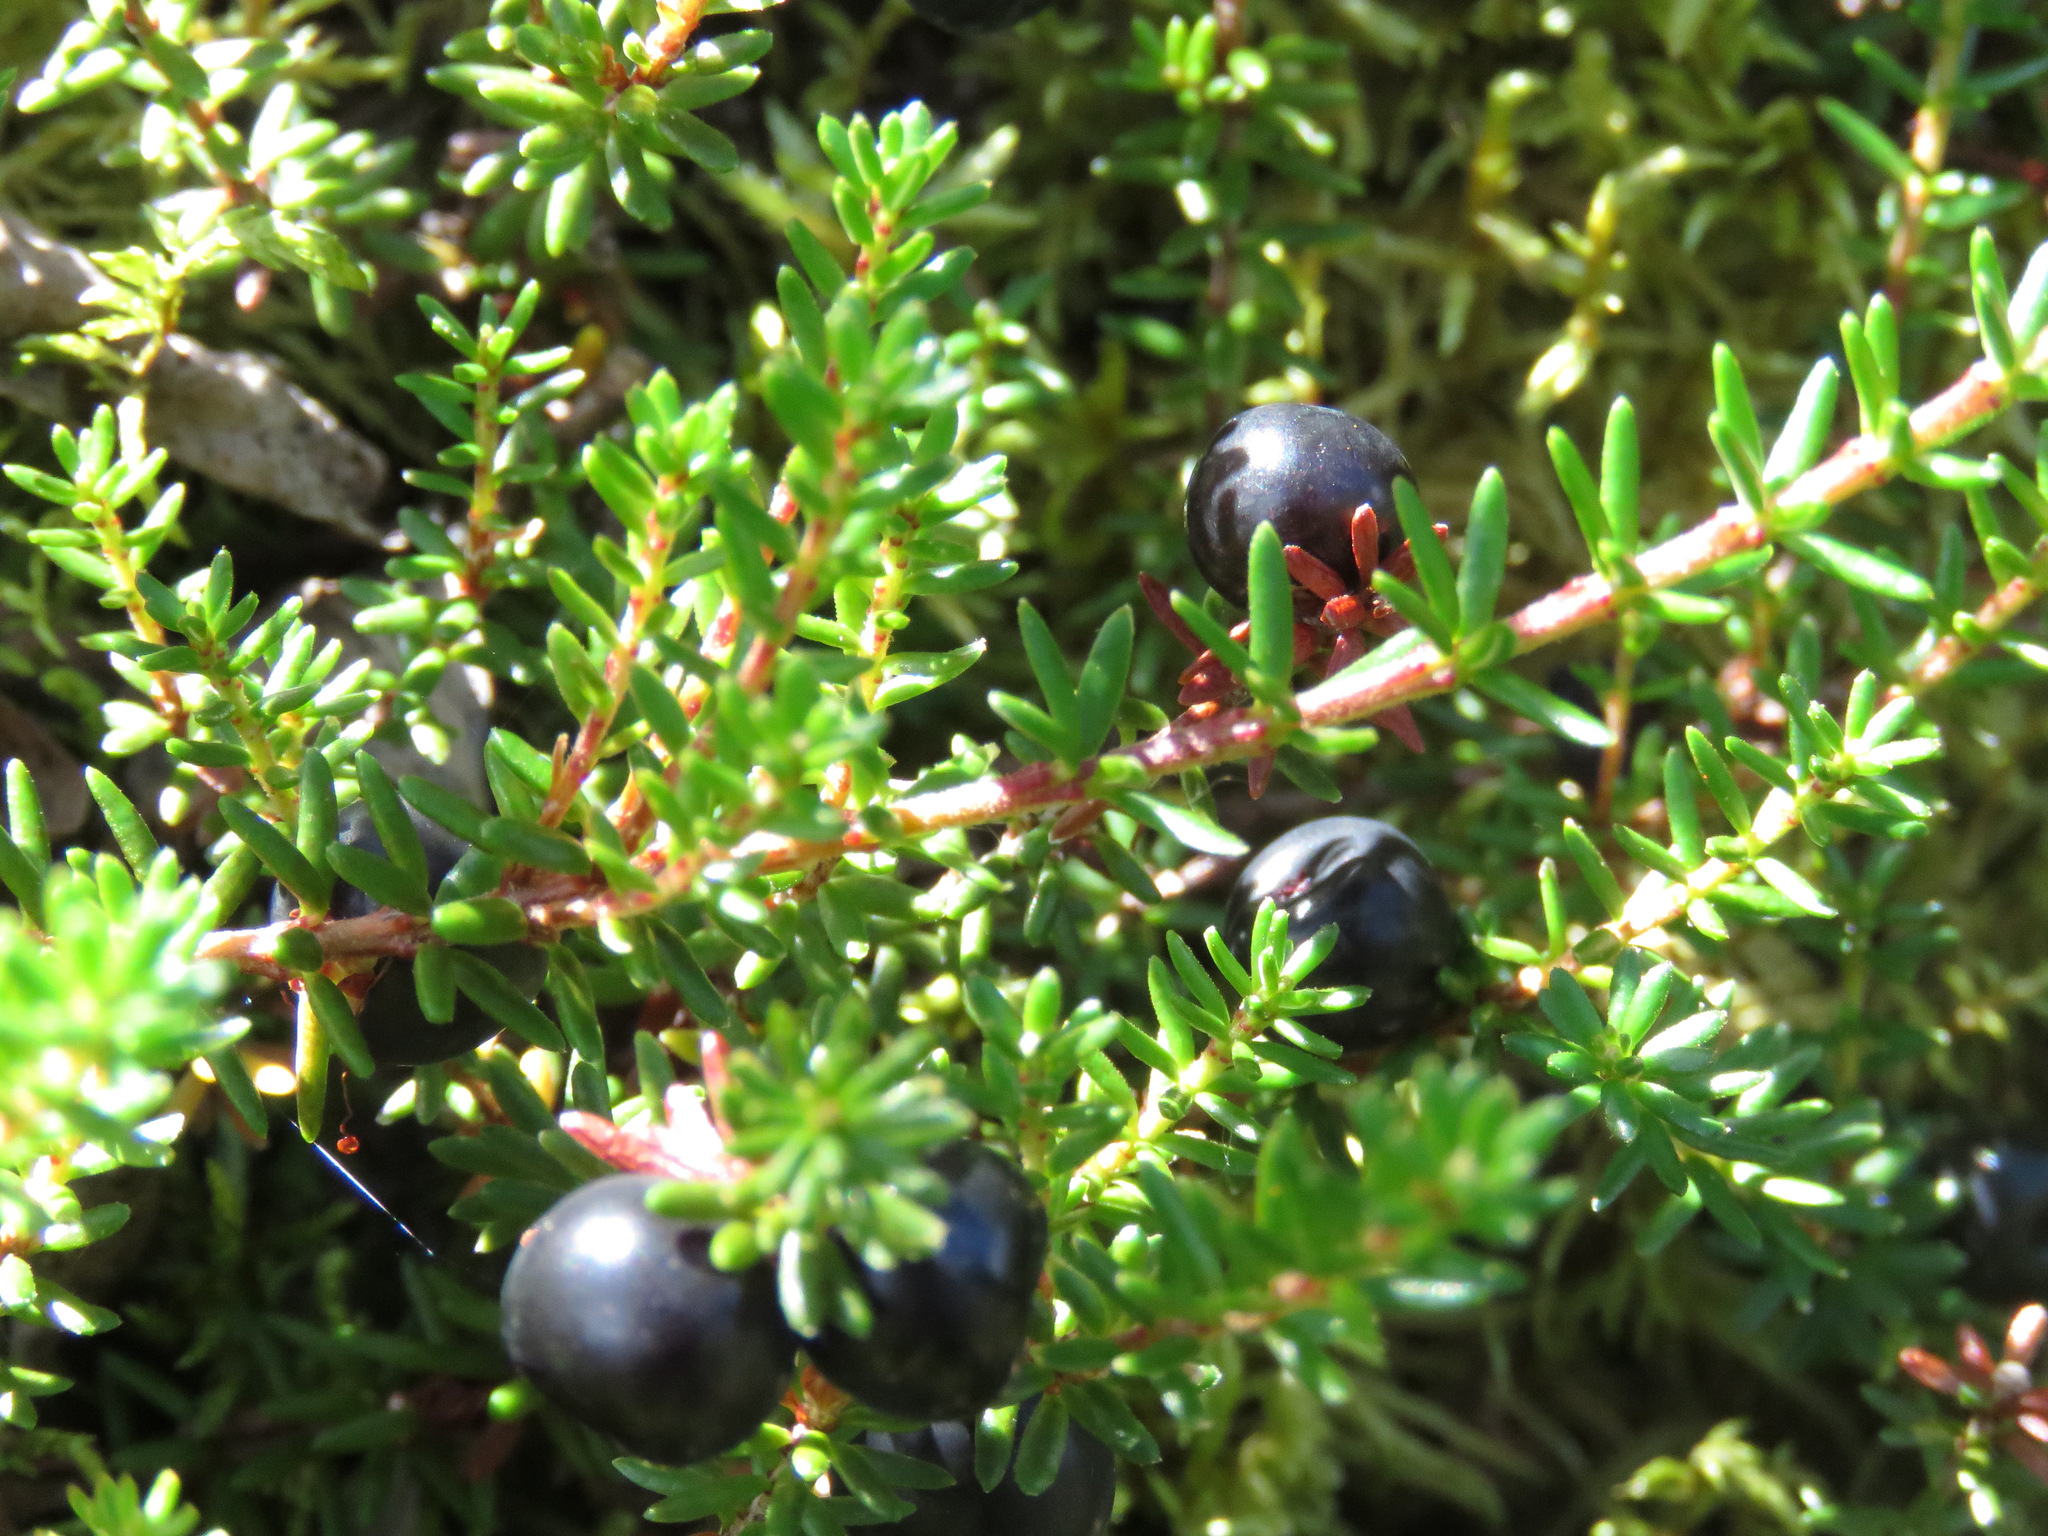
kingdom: Plantae
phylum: Tracheophyta
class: Magnoliopsida
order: Ericales
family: Ericaceae
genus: Empetrum
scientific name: Empetrum nigrum
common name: Black crowberry
